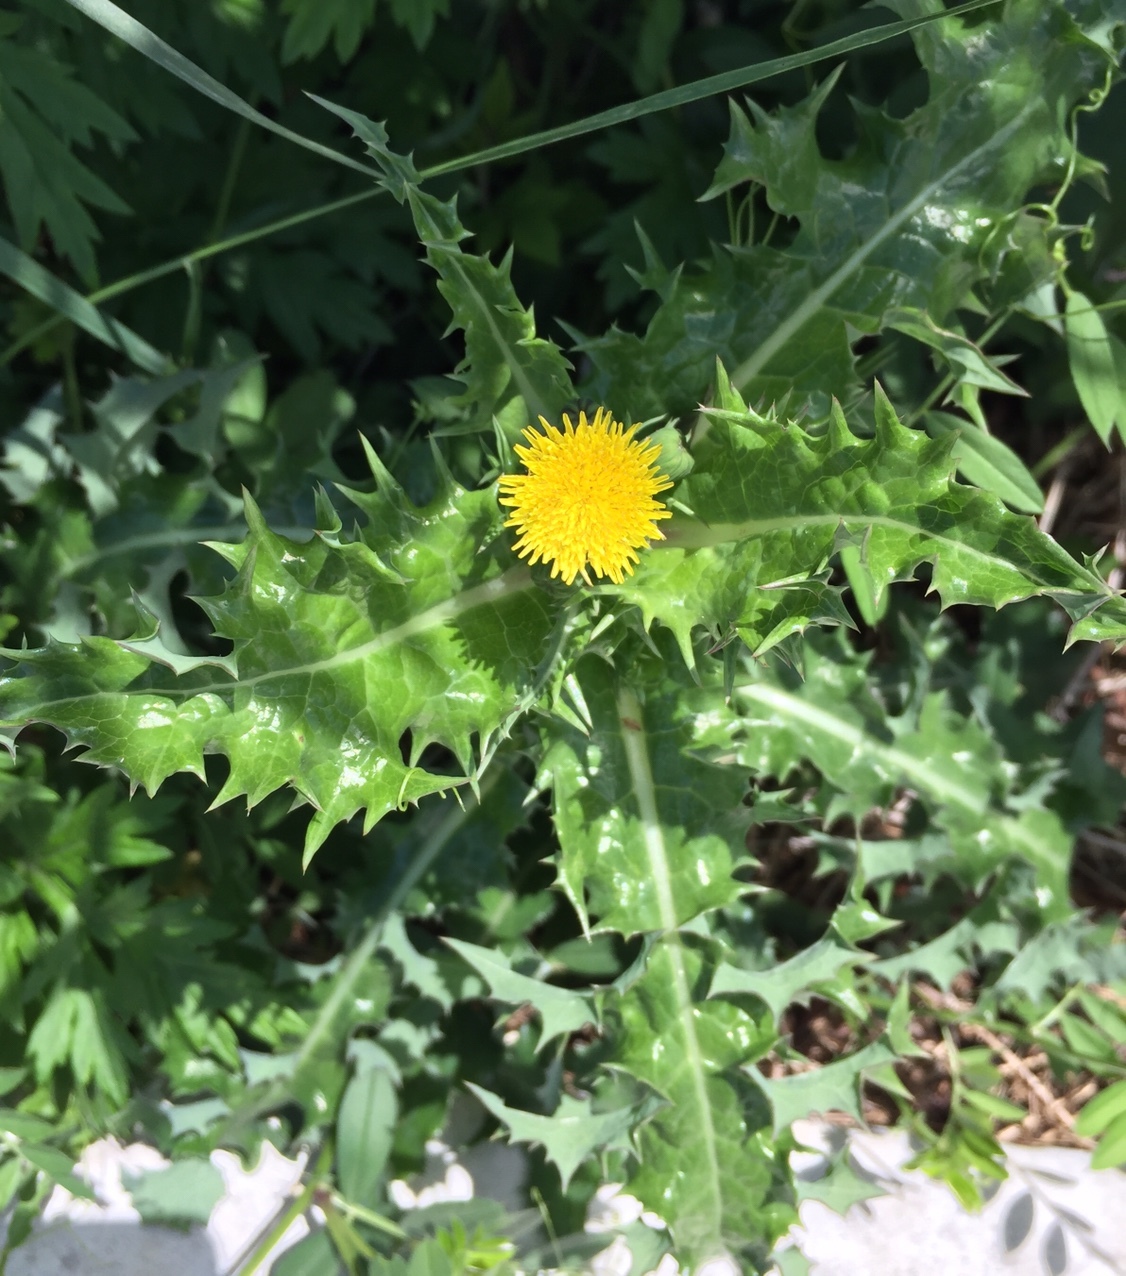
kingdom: Plantae
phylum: Tracheophyta
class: Magnoliopsida
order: Asterales
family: Asteraceae
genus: Sonchus
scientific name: Sonchus asper
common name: Prickly sow-thistle
